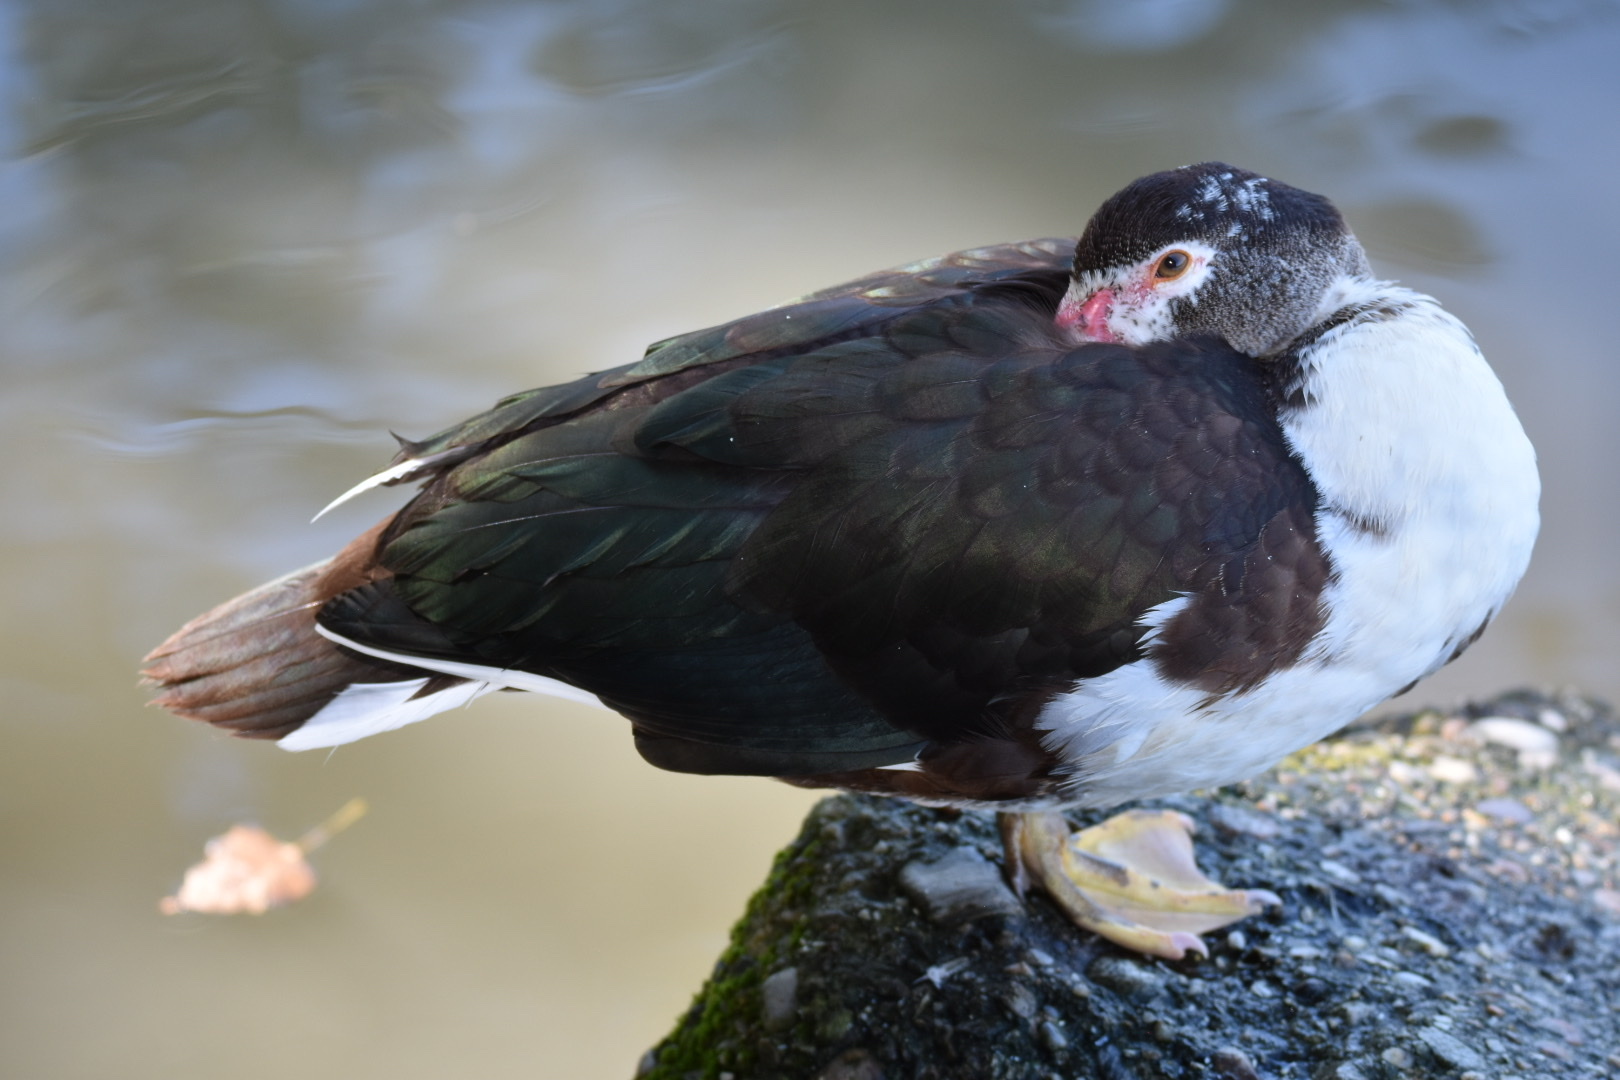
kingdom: Animalia
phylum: Chordata
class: Aves
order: Anseriformes
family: Anatidae
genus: Cairina
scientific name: Cairina moschata
